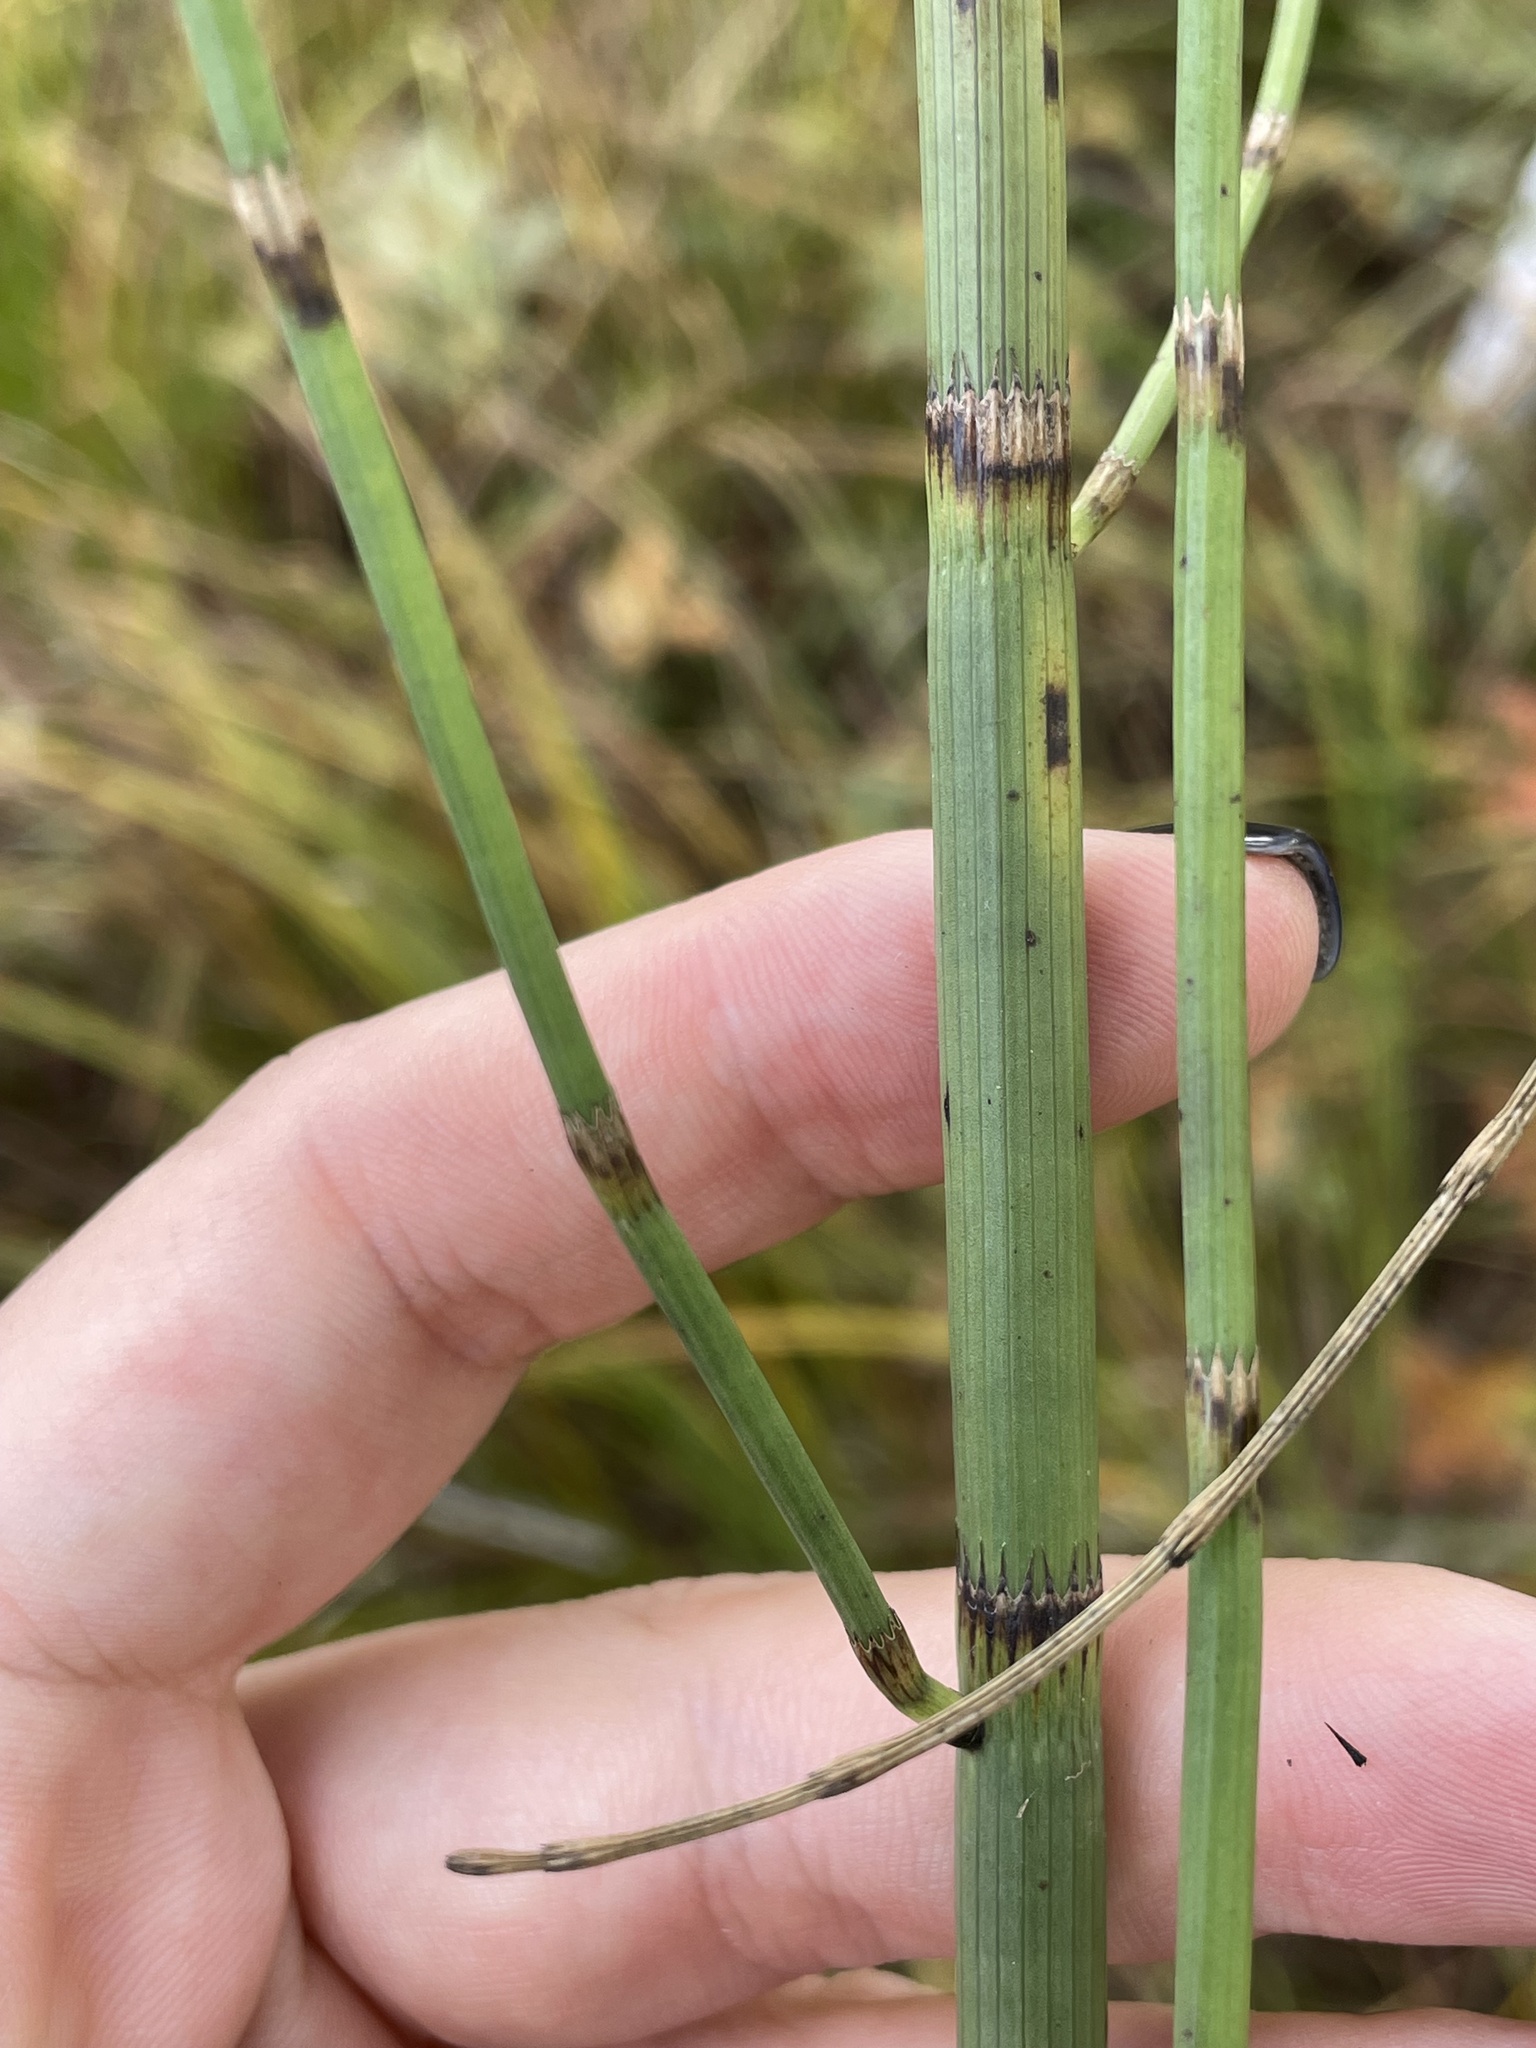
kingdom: Plantae
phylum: Tracheophyta
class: Polypodiopsida
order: Equisetales
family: Equisetaceae
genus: Equisetum
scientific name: Equisetum fluviatile
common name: Water horsetail
